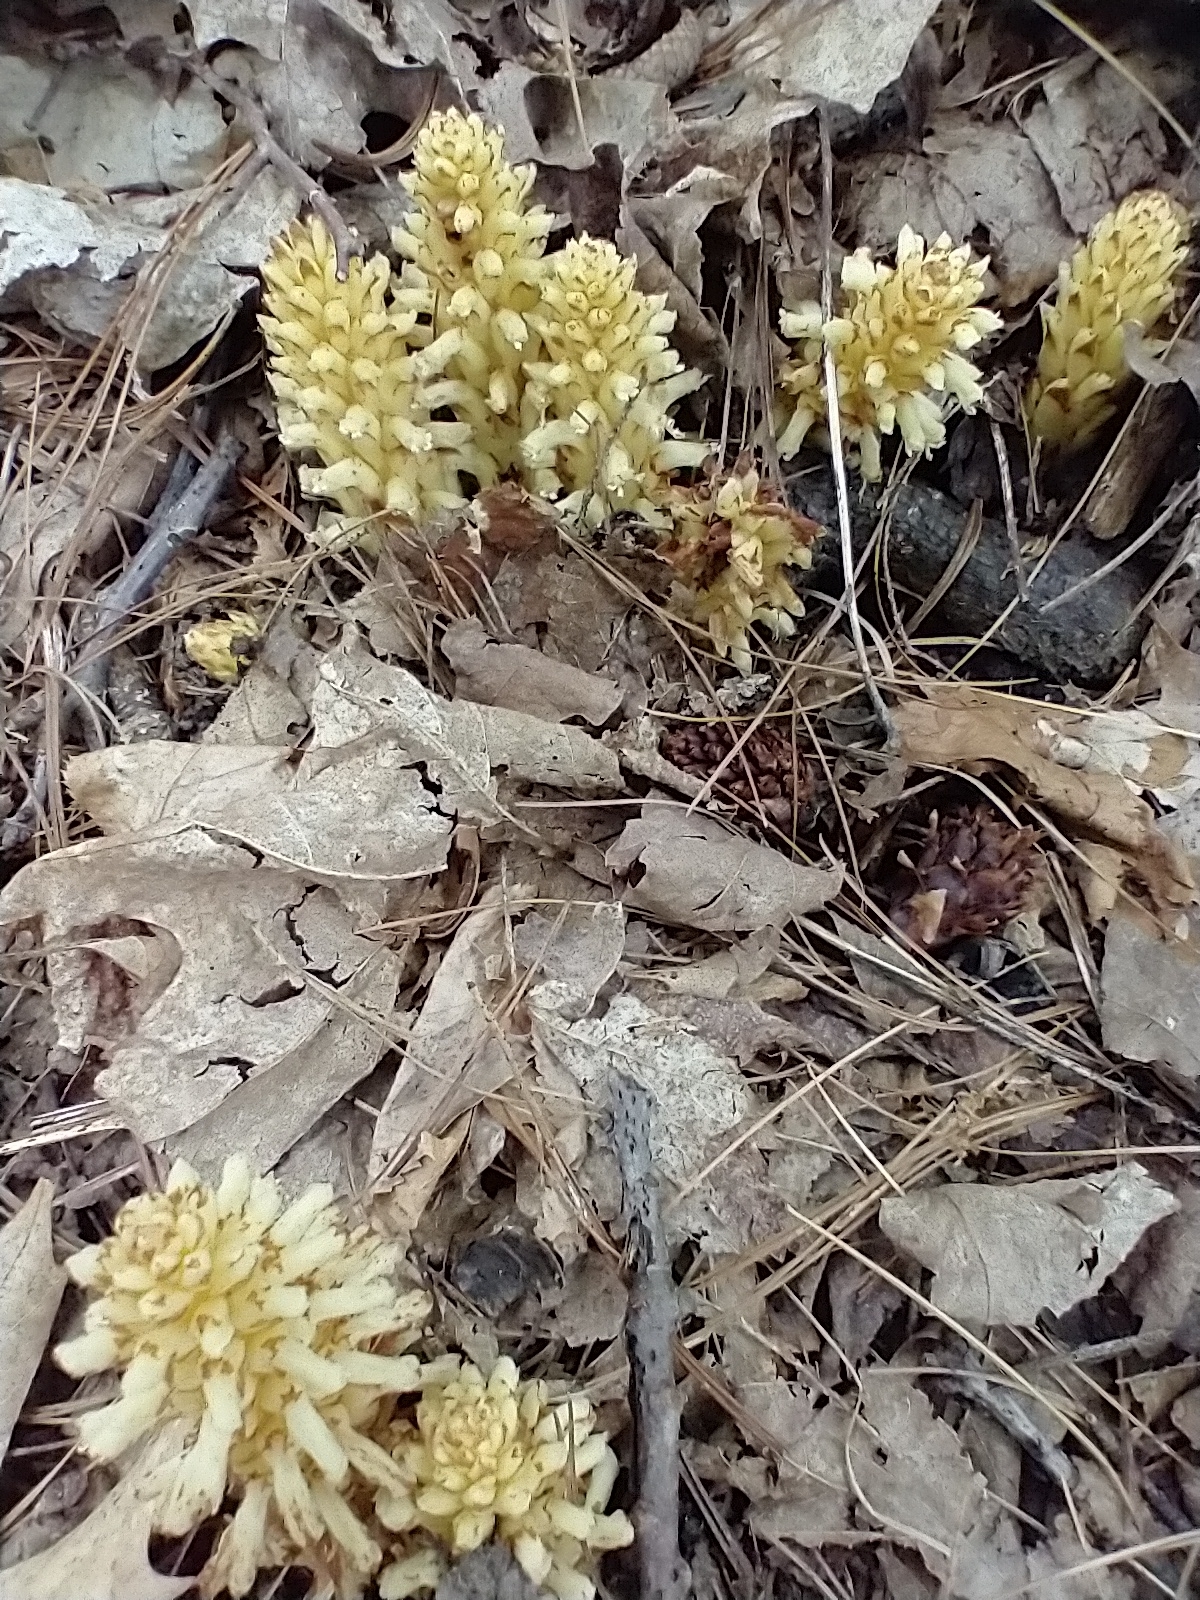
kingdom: Plantae
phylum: Tracheophyta
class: Magnoliopsida
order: Lamiales
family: Orobanchaceae
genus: Conopholis
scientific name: Conopholis americana
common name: American cancer-root
